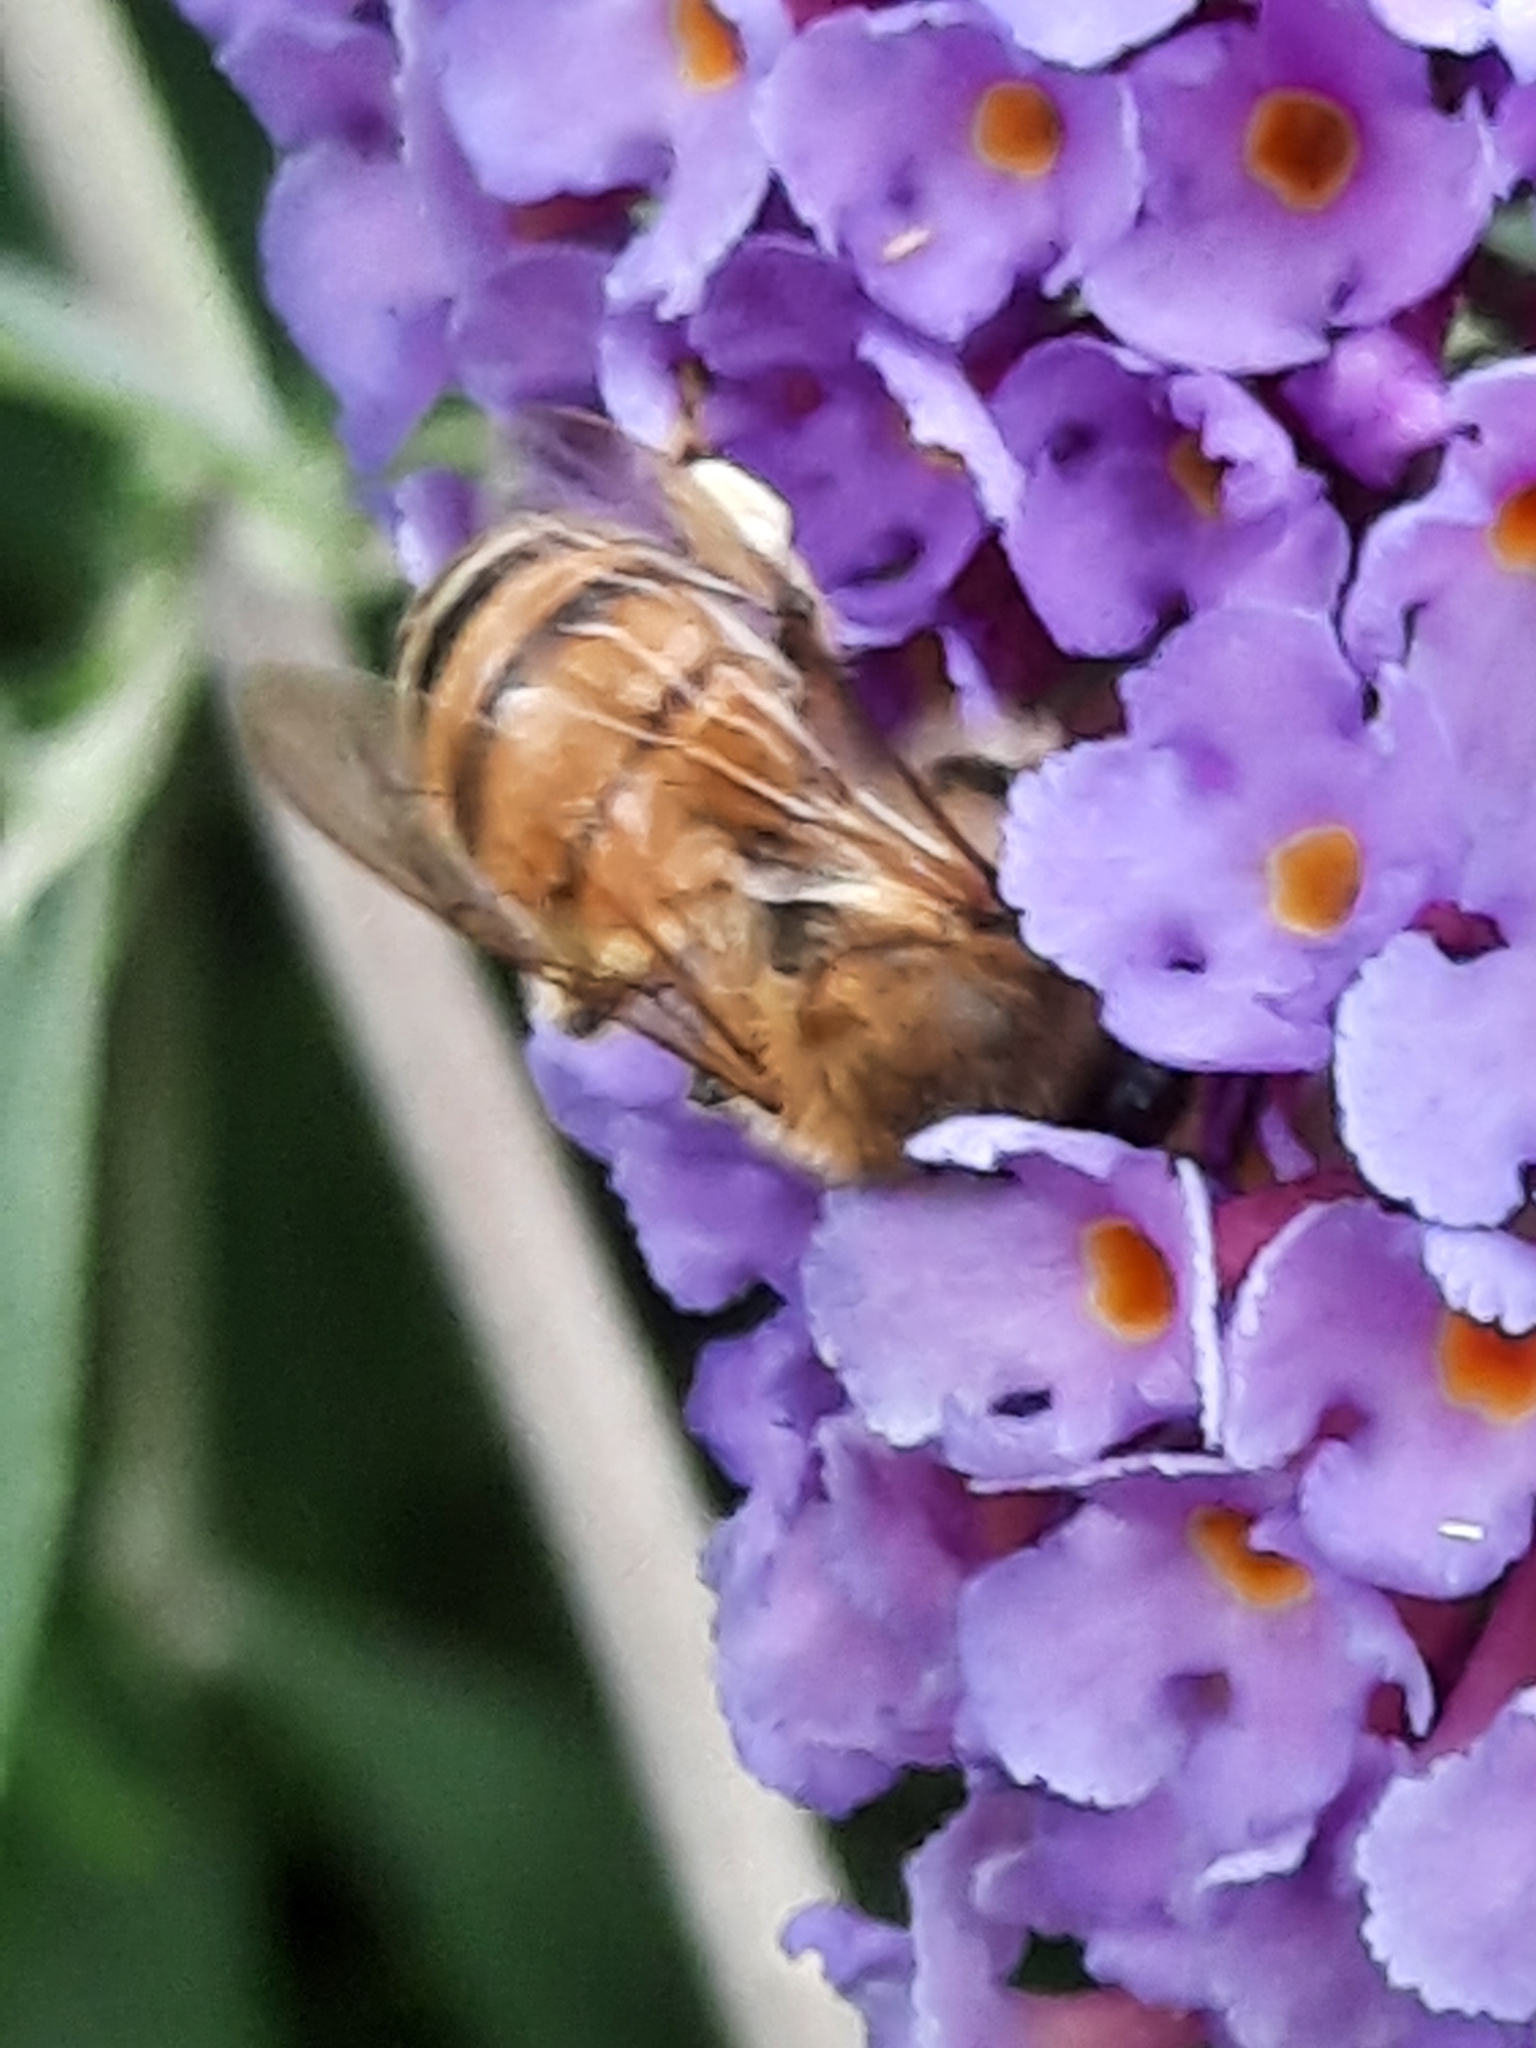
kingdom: Animalia
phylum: Arthropoda
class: Insecta
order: Hymenoptera
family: Apidae
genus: Apis
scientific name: Apis mellifera
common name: Honey bee
